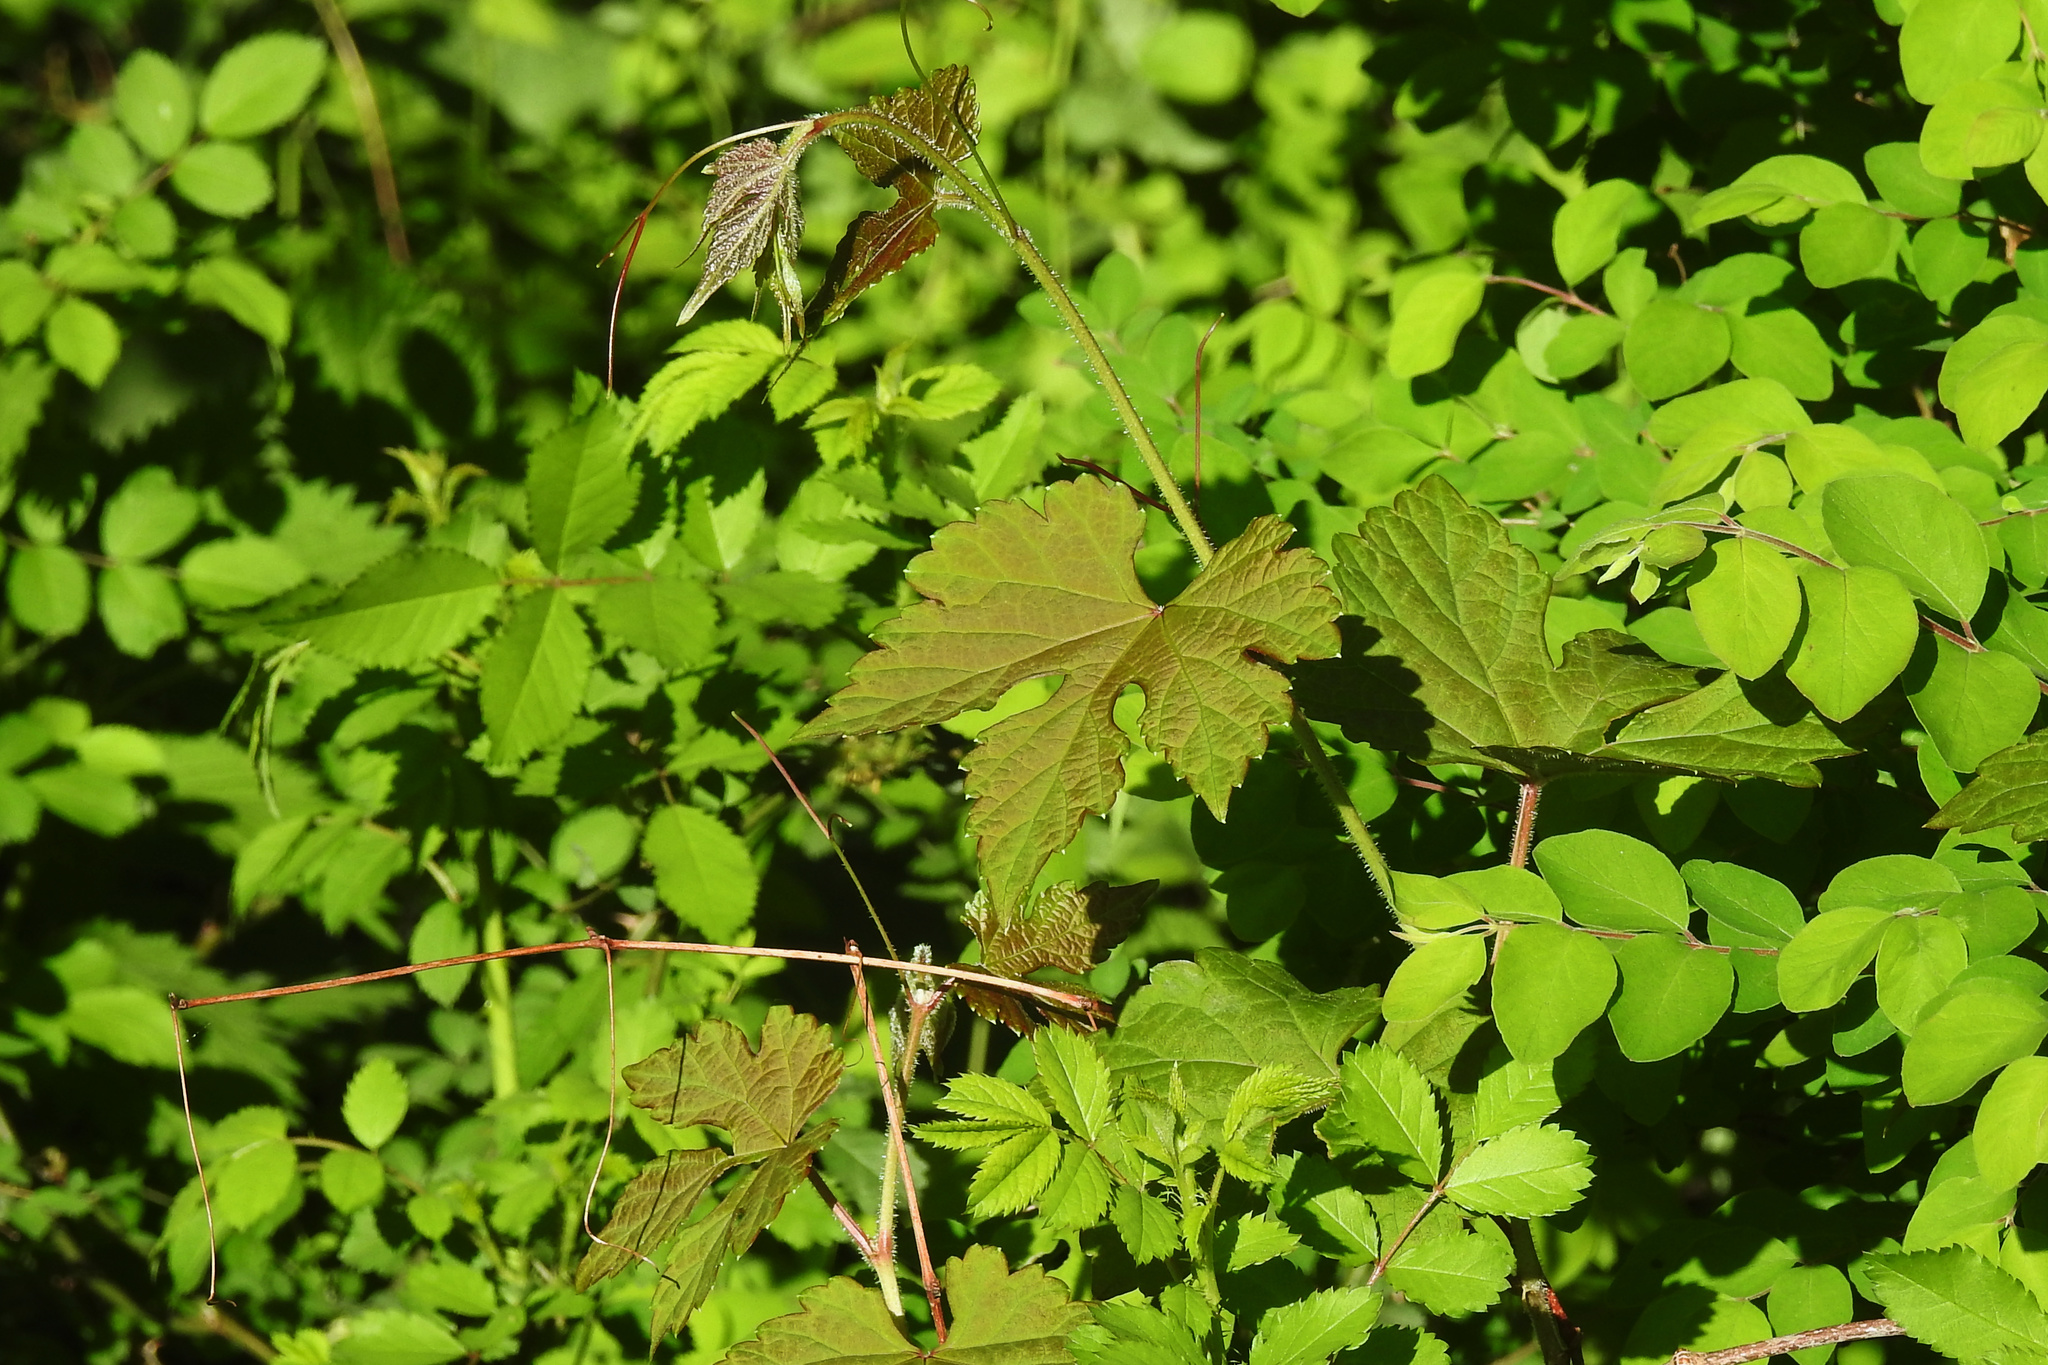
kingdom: Plantae
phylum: Tracheophyta
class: Magnoliopsida
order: Vitales
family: Vitaceae
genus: Ampelopsis
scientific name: Ampelopsis glandulosa
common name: Amur peppervine
